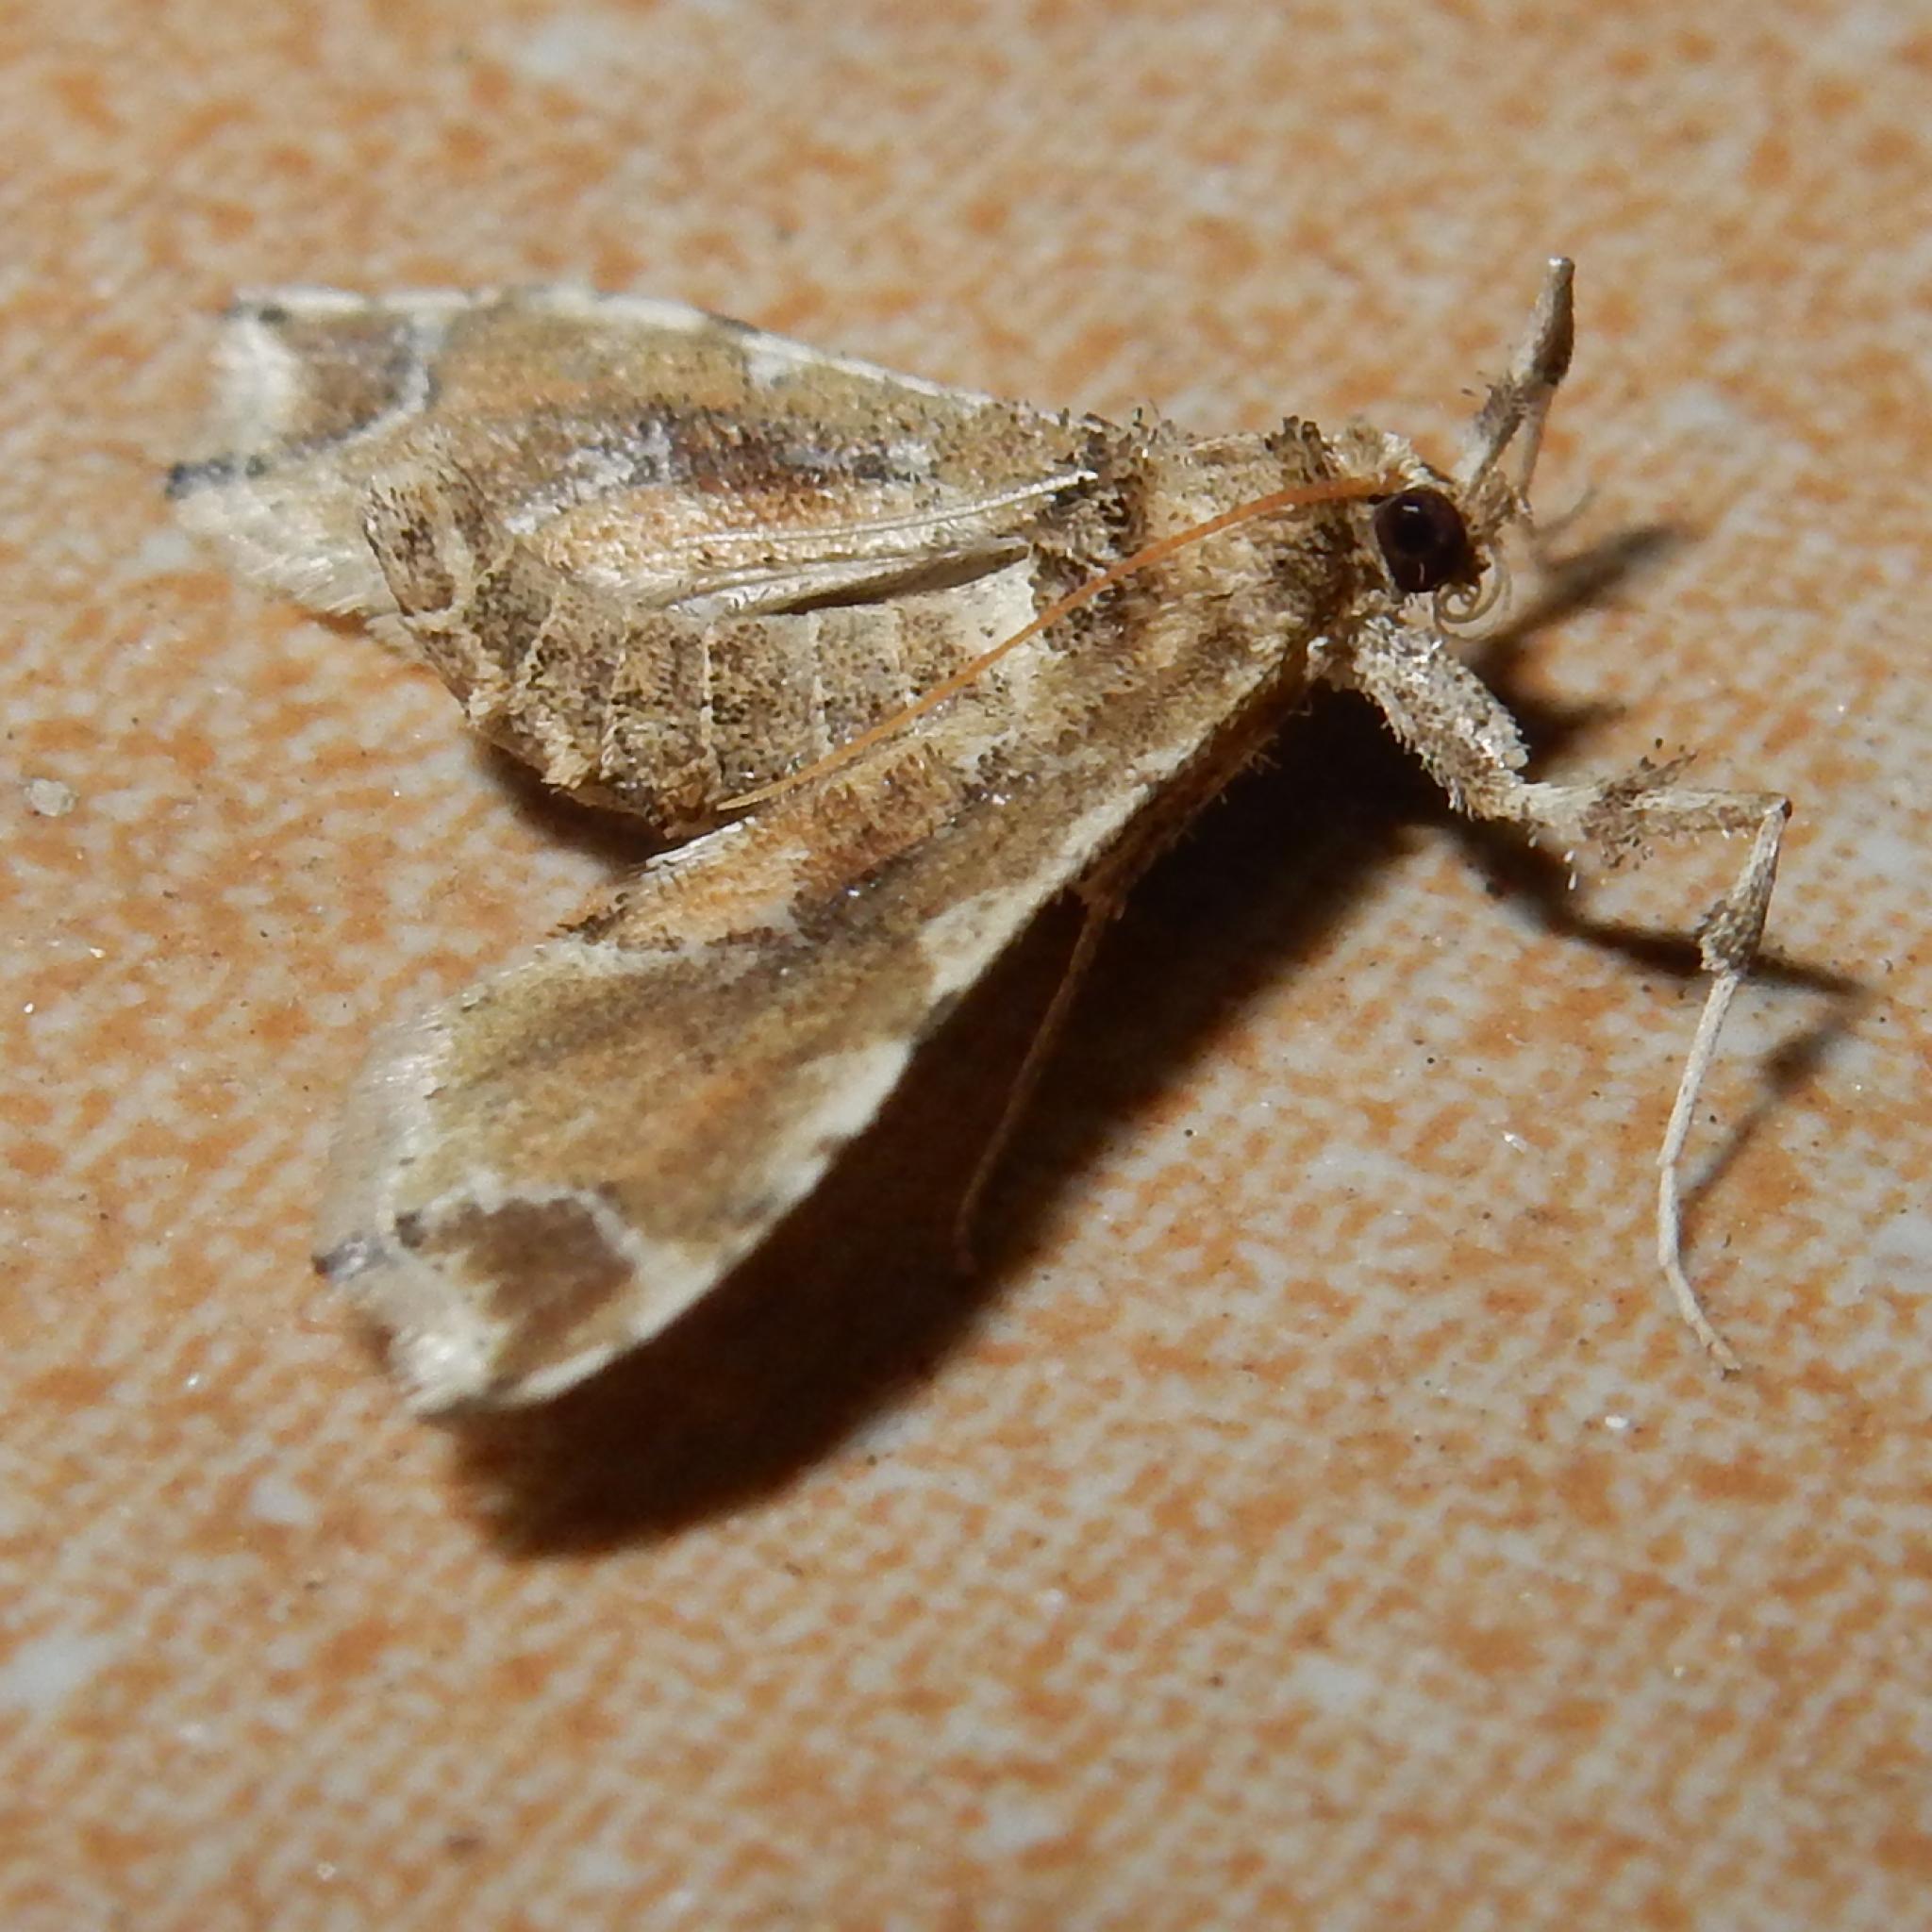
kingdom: Animalia
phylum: Arthropoda
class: Insecta
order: Lepidoptera
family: Crambidae
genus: Leucinodes
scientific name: Leucinodes laisalis
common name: African tomato pearl
